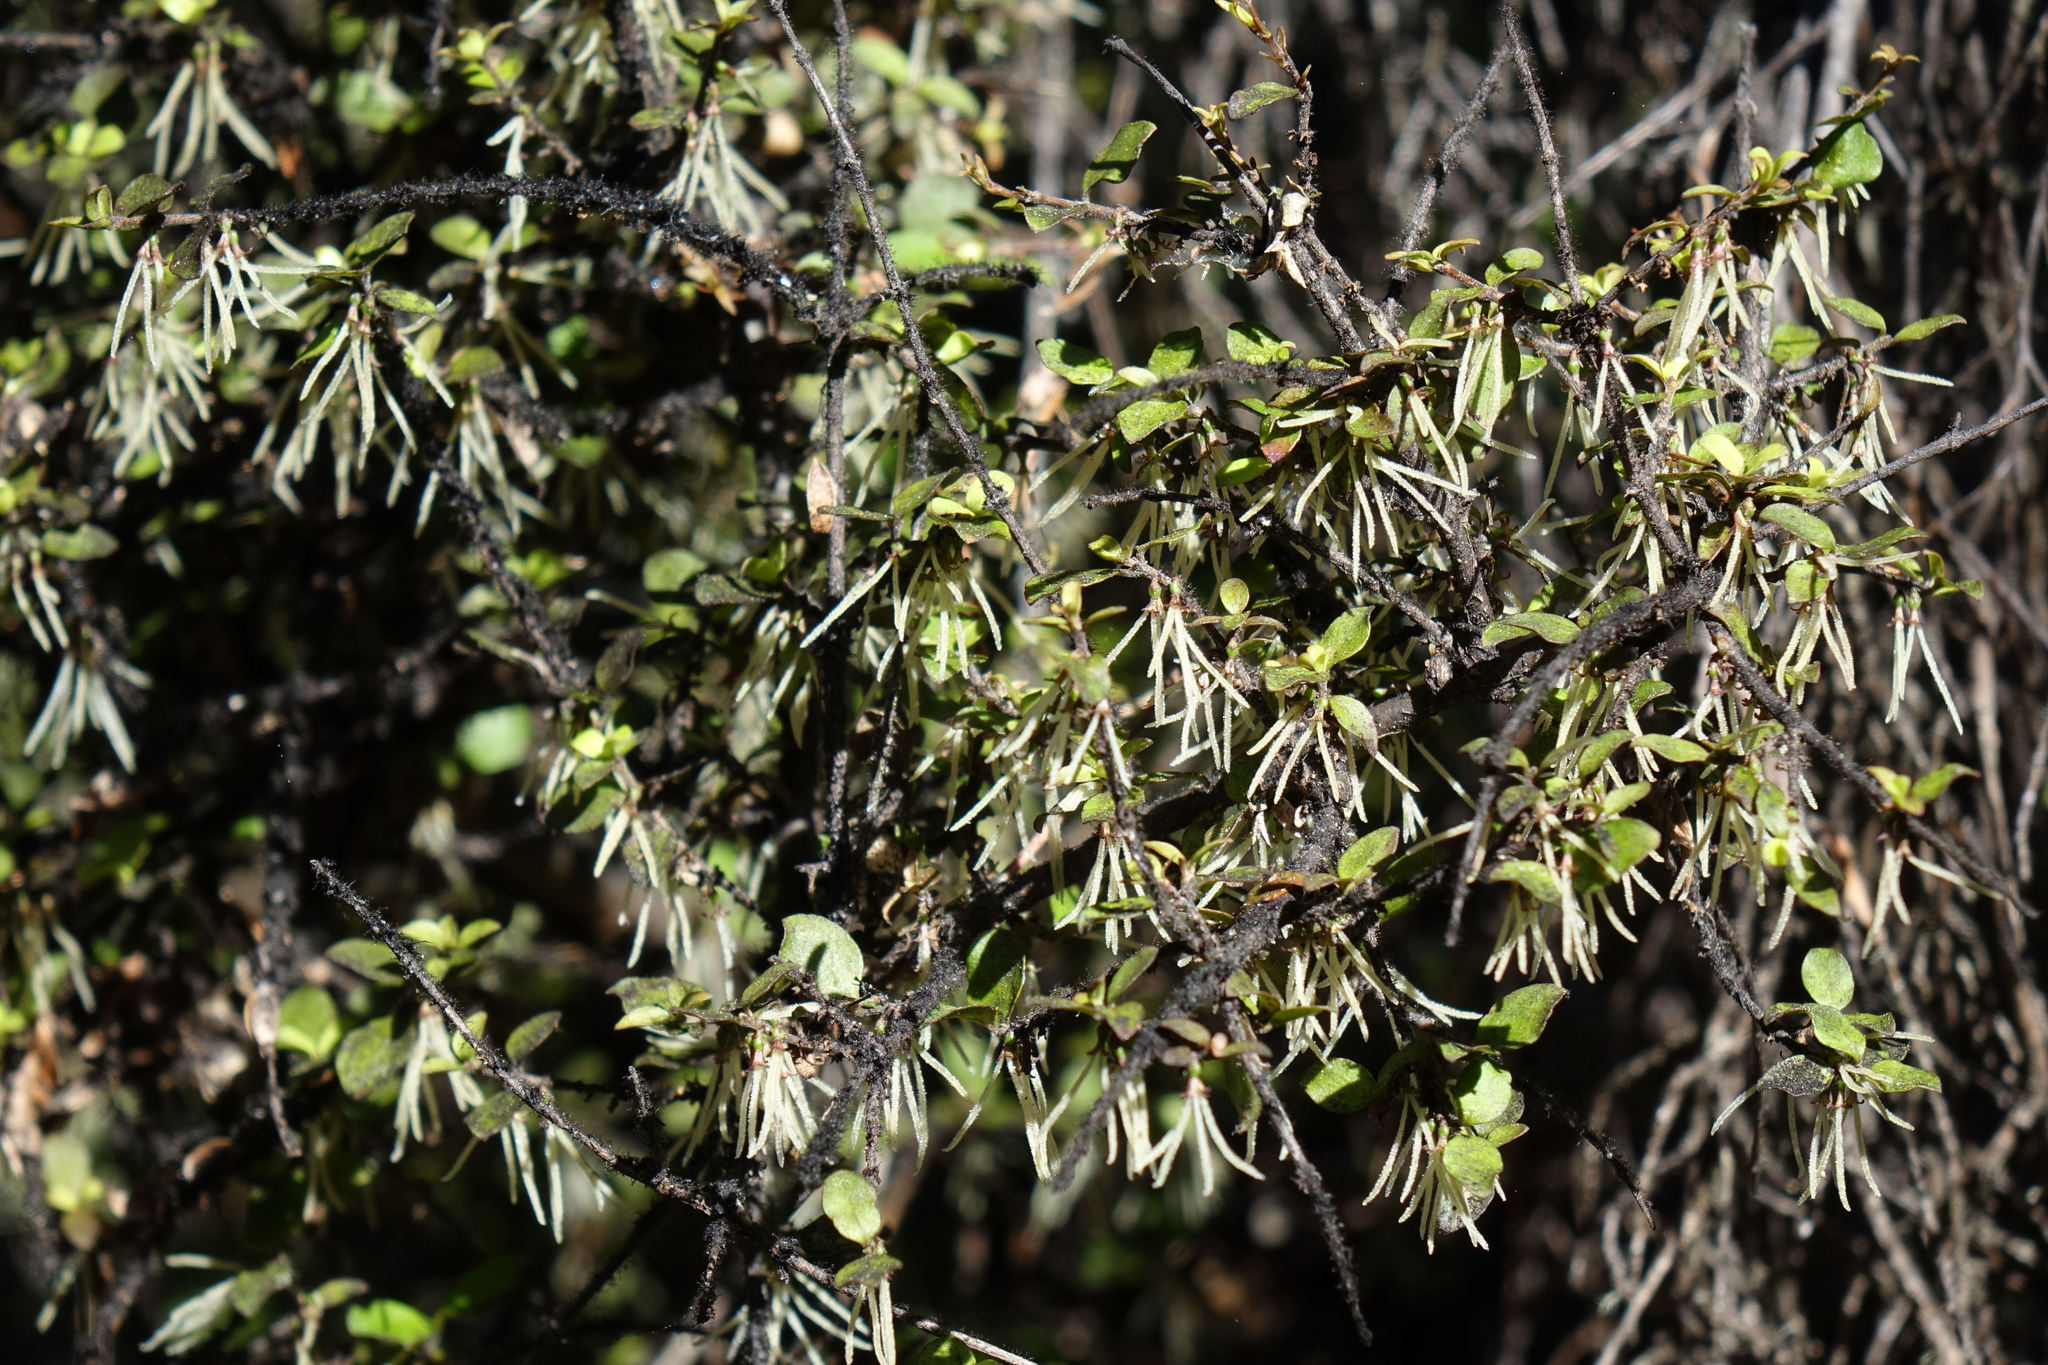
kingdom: Plantae
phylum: Tracheophyta
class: Magnoliopsida
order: Gentianales
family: Rubiaceae
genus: Coprosma
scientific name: Coprosma rhamnoides
